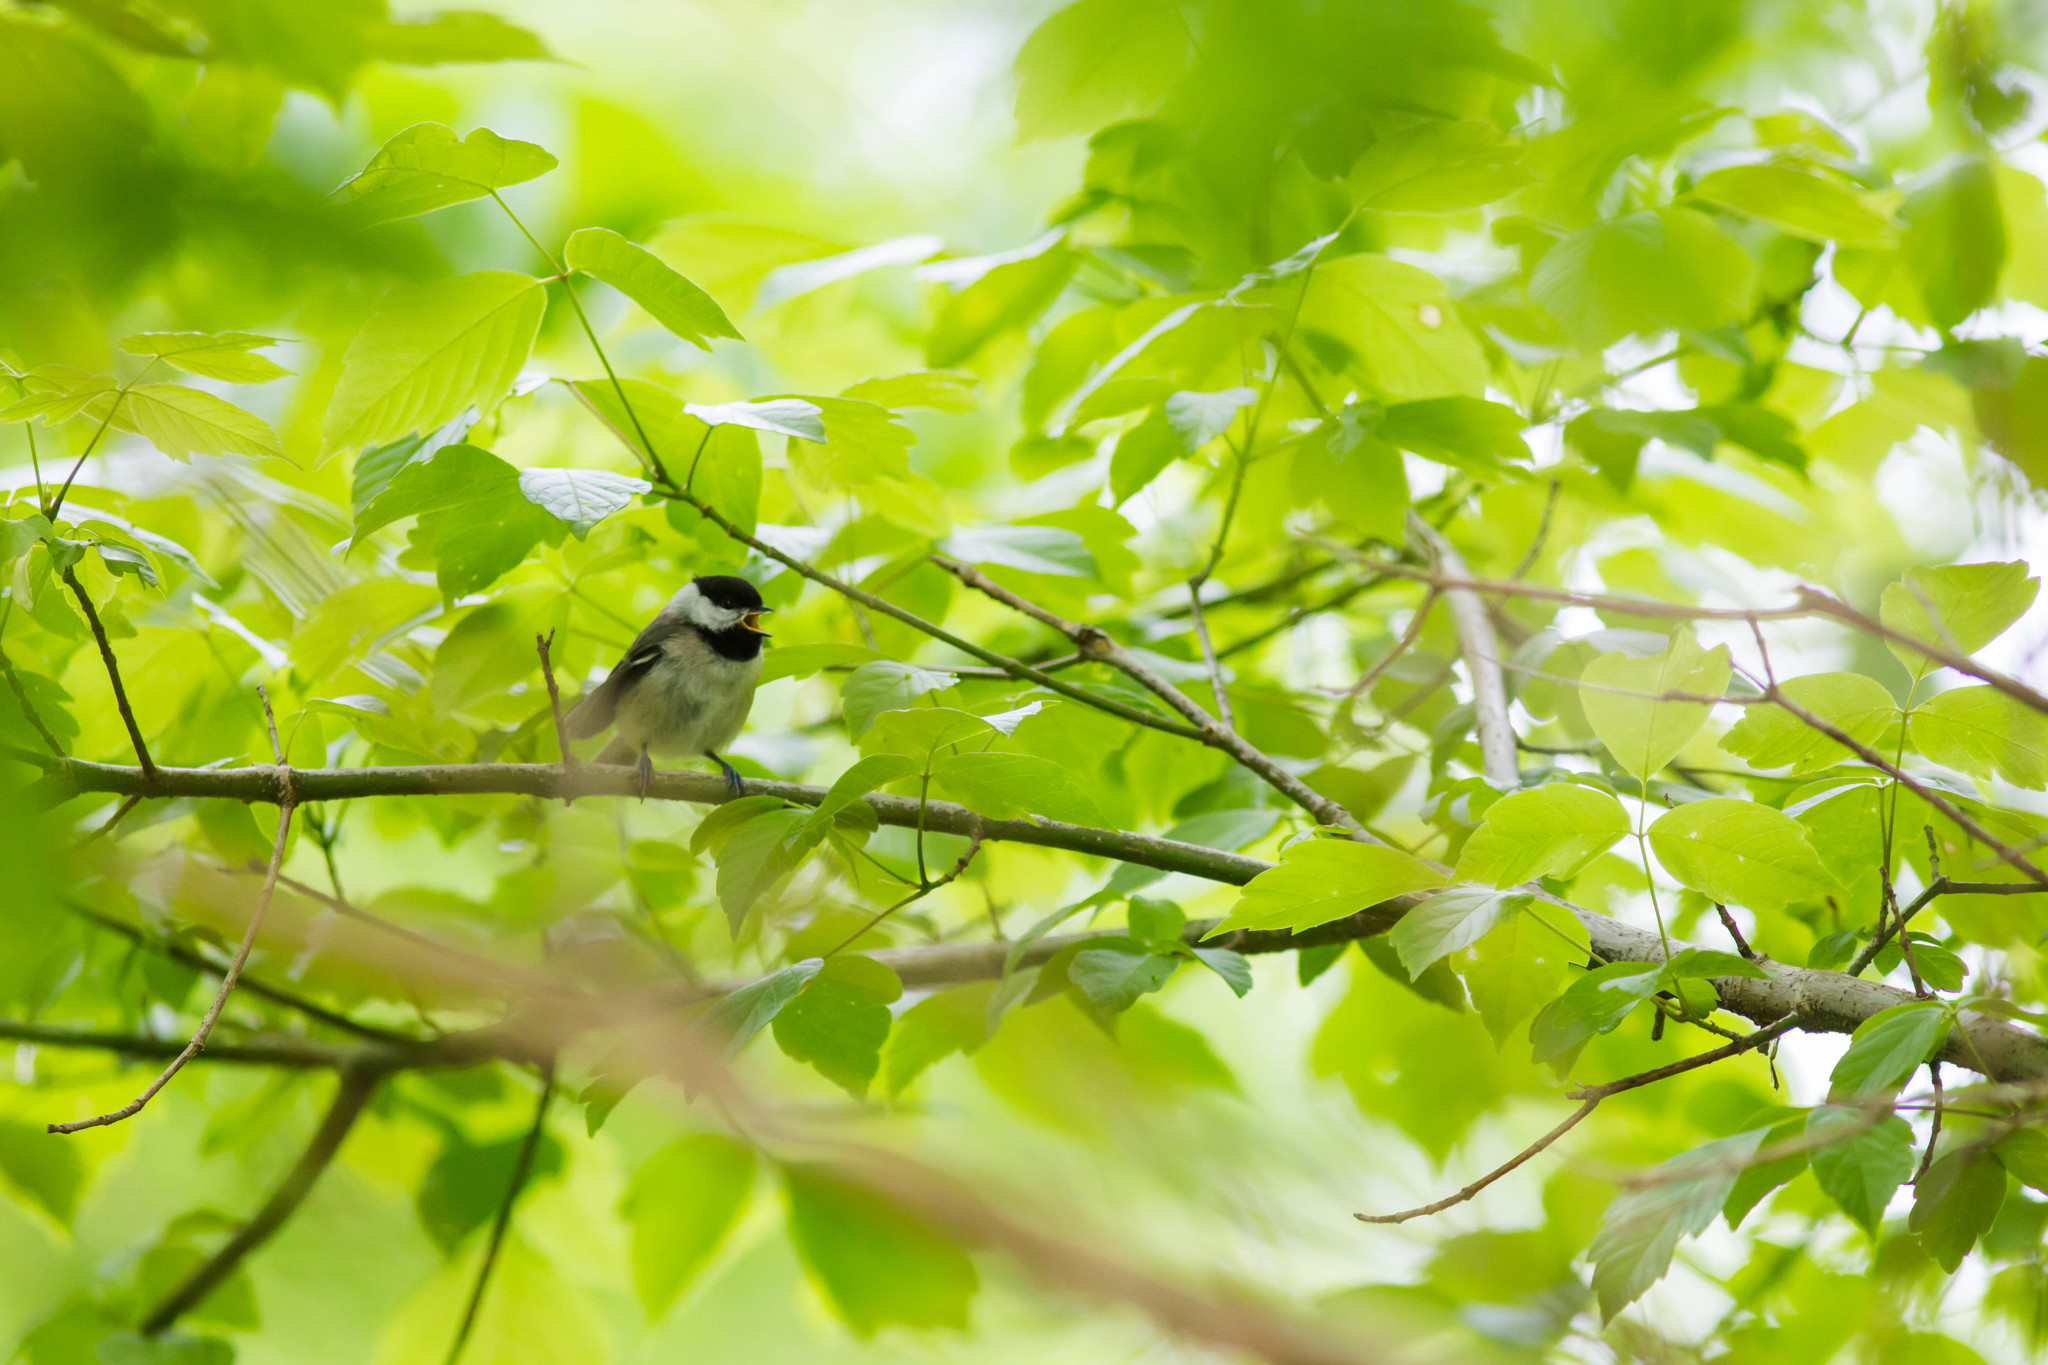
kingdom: Animalia
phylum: Chordata
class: Aves
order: Passeriformes
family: Paridae
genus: Poecile
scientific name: Poecile carolinensis
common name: Carolina chickadee
